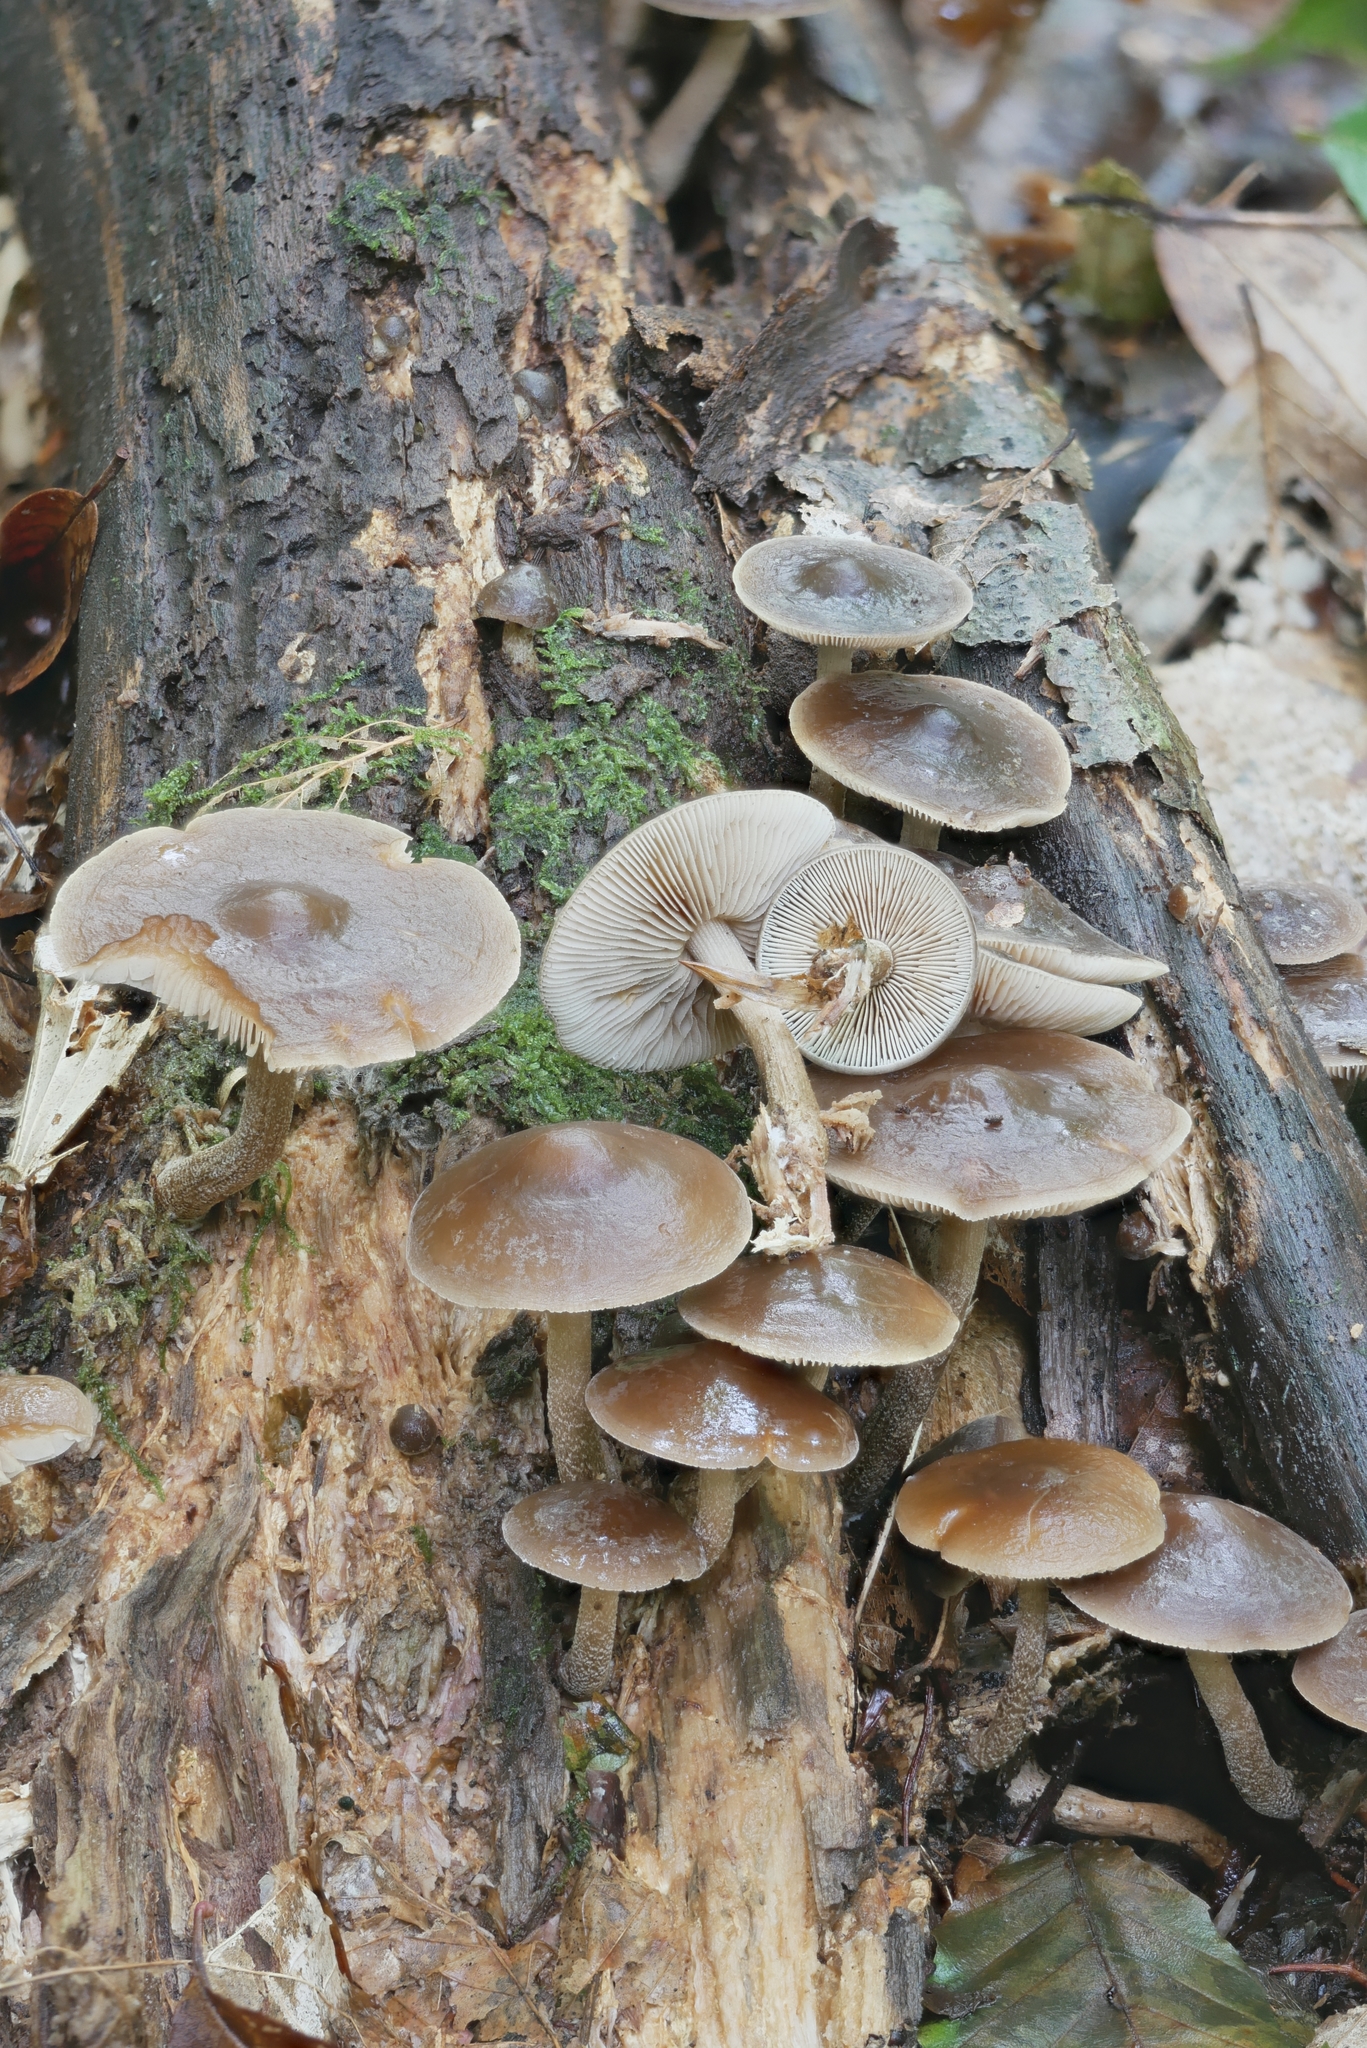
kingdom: Fungi
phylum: Basidiomycota
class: Agaricomycetes
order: Agaricales
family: Strophariaceae
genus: Agrocybe
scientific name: Agrocybe firma
